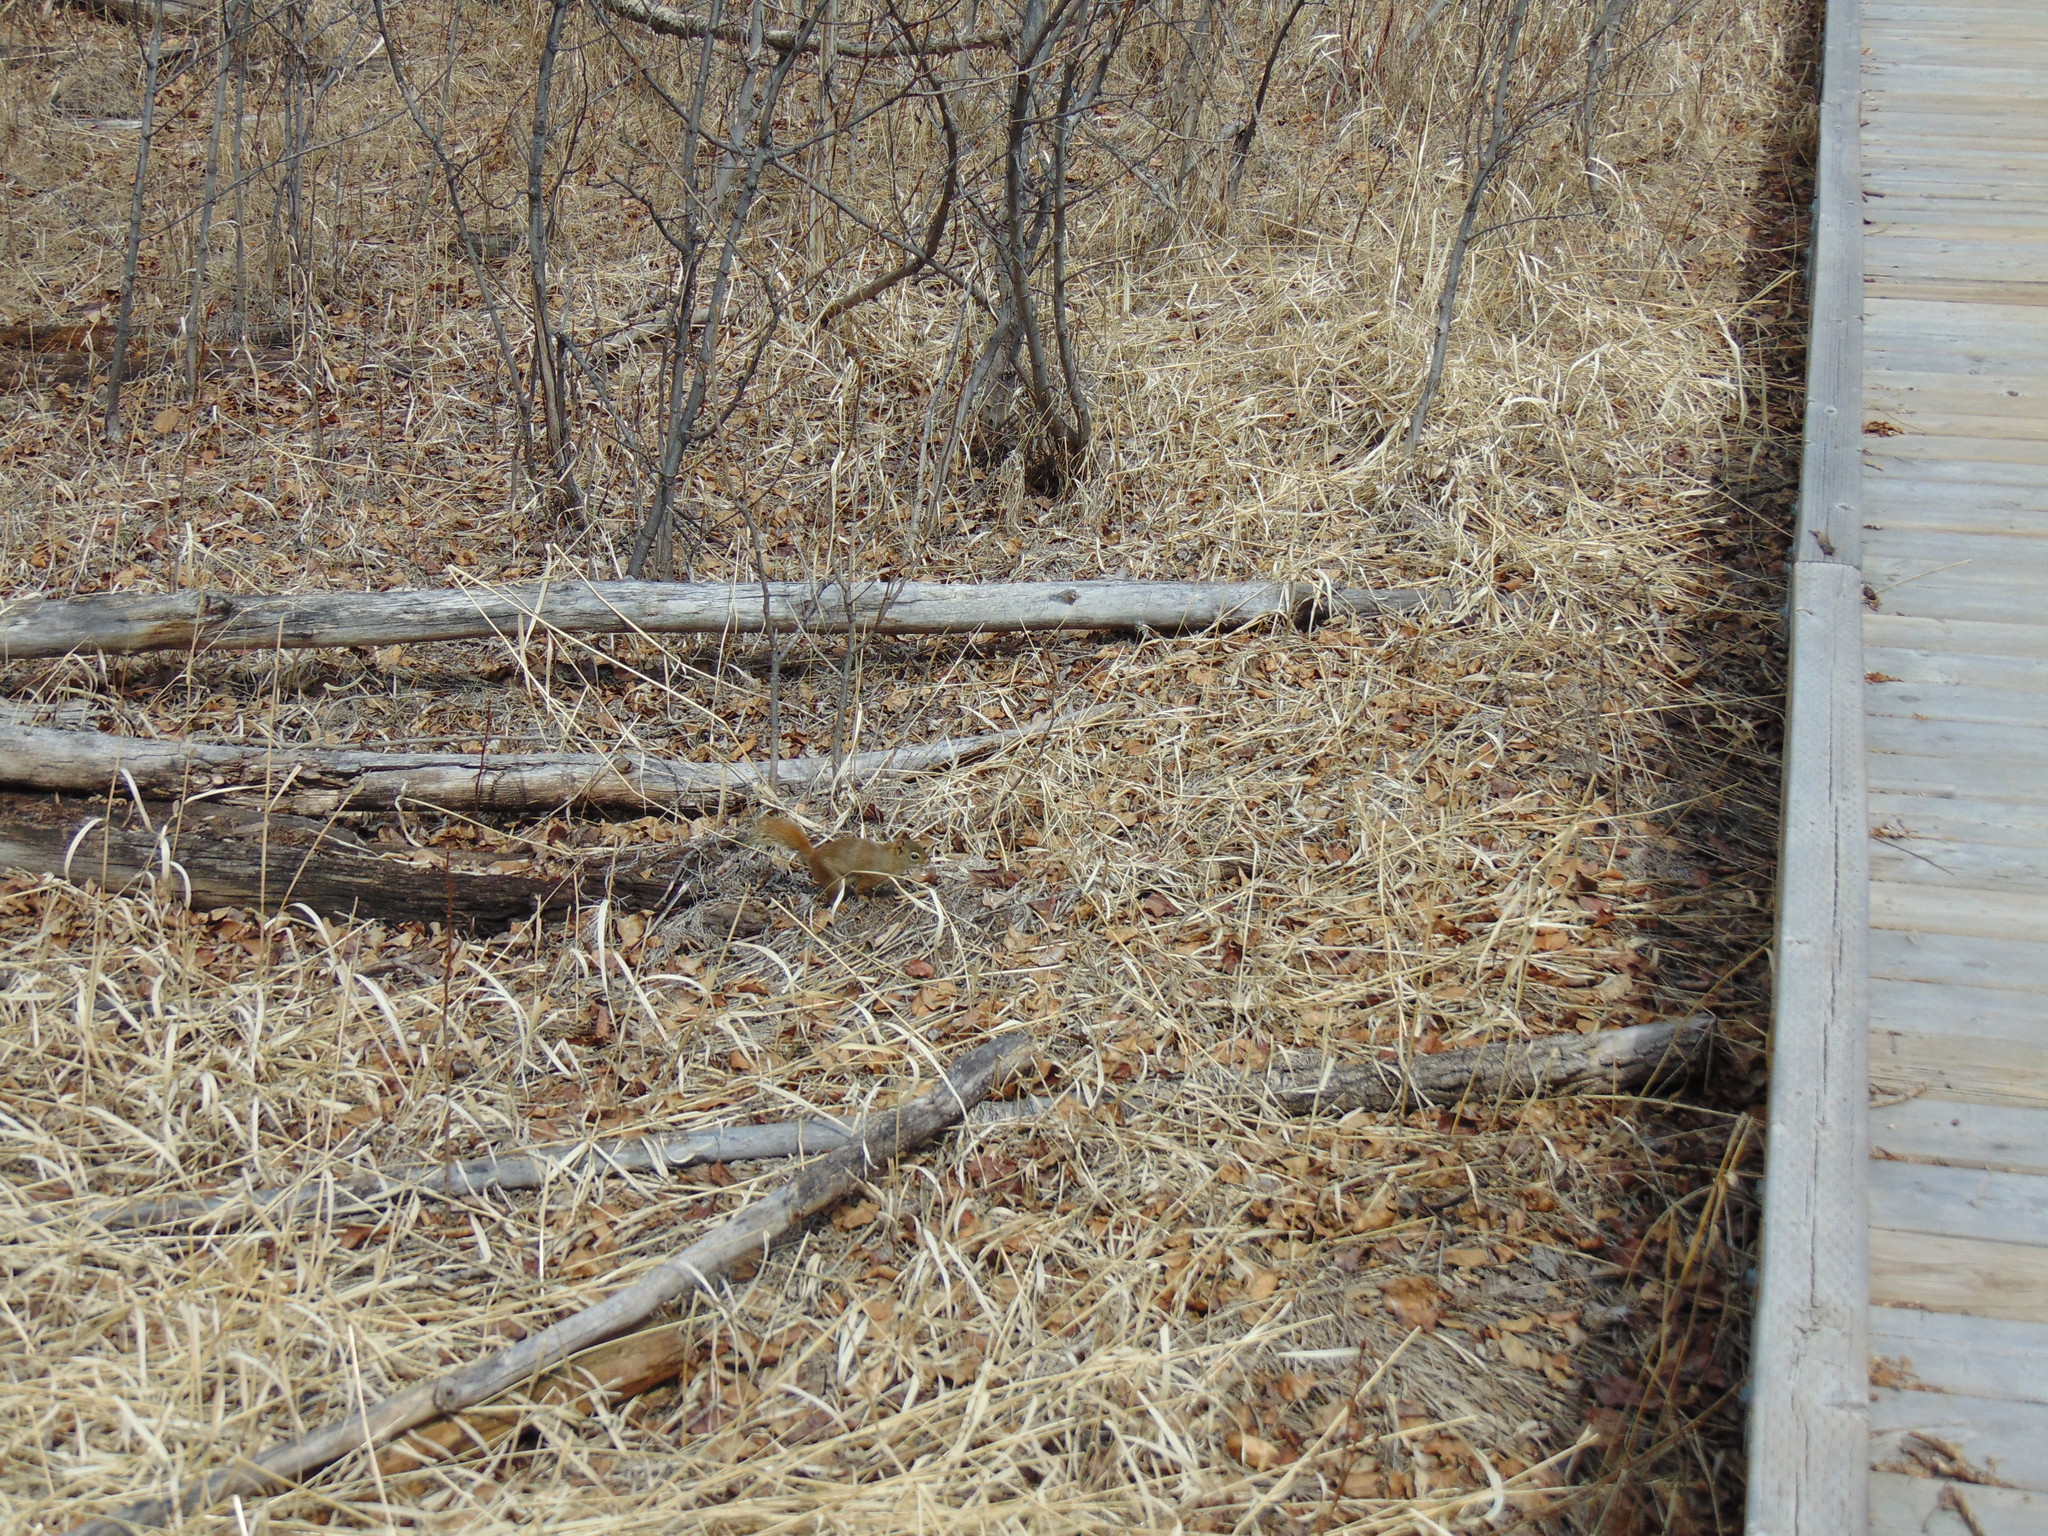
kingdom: Animalia
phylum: Chordata
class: Mammalia
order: Rodentia
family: Sciuridae
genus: Tamiasciurus
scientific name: Tamiasciurus hudsonicus
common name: Red squirrel
